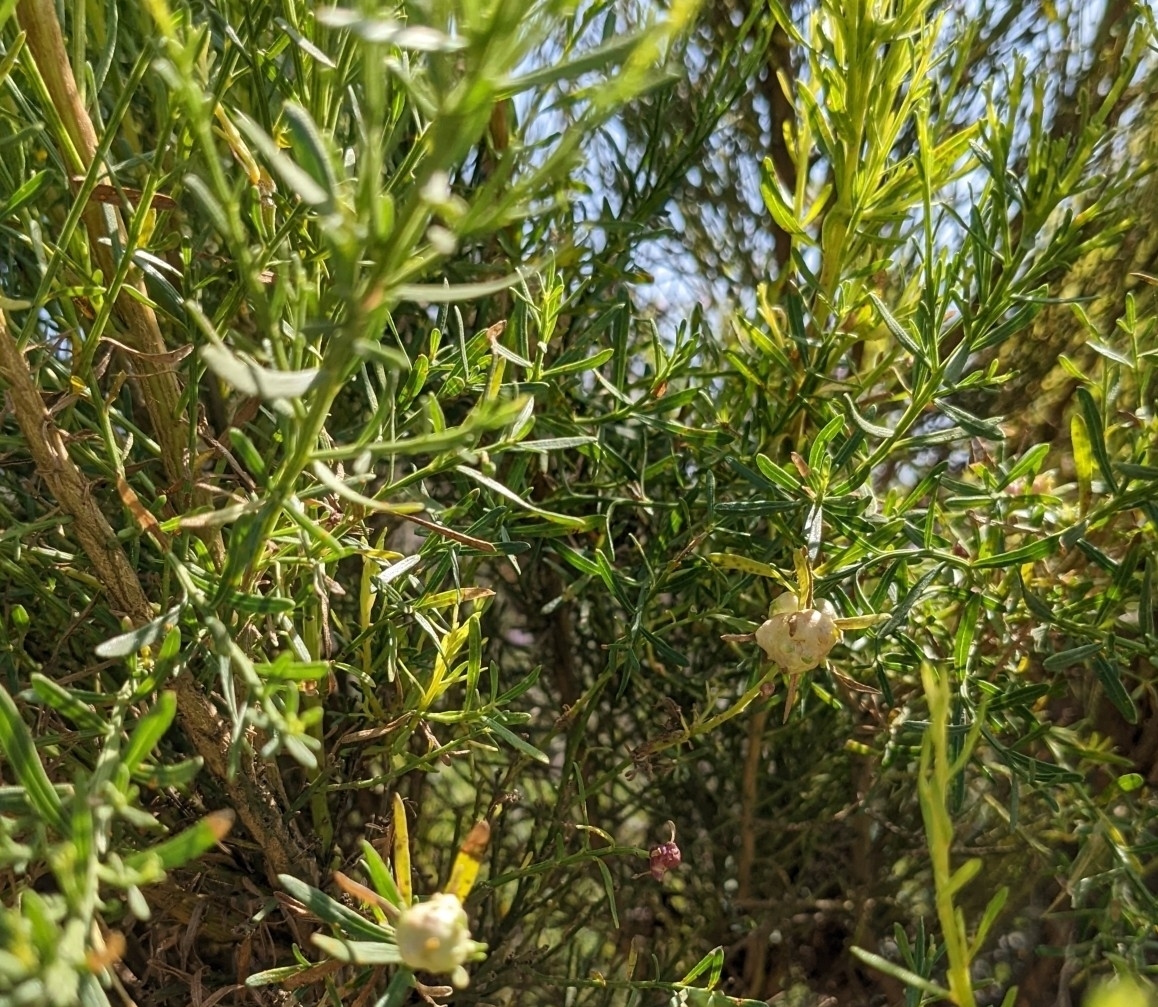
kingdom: Plantae
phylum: Tracheophyta
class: Magnoliopsida
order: Asterales
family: Asteraceae
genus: Baccharis
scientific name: Baccharis sarothroides
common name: Desert-broom
